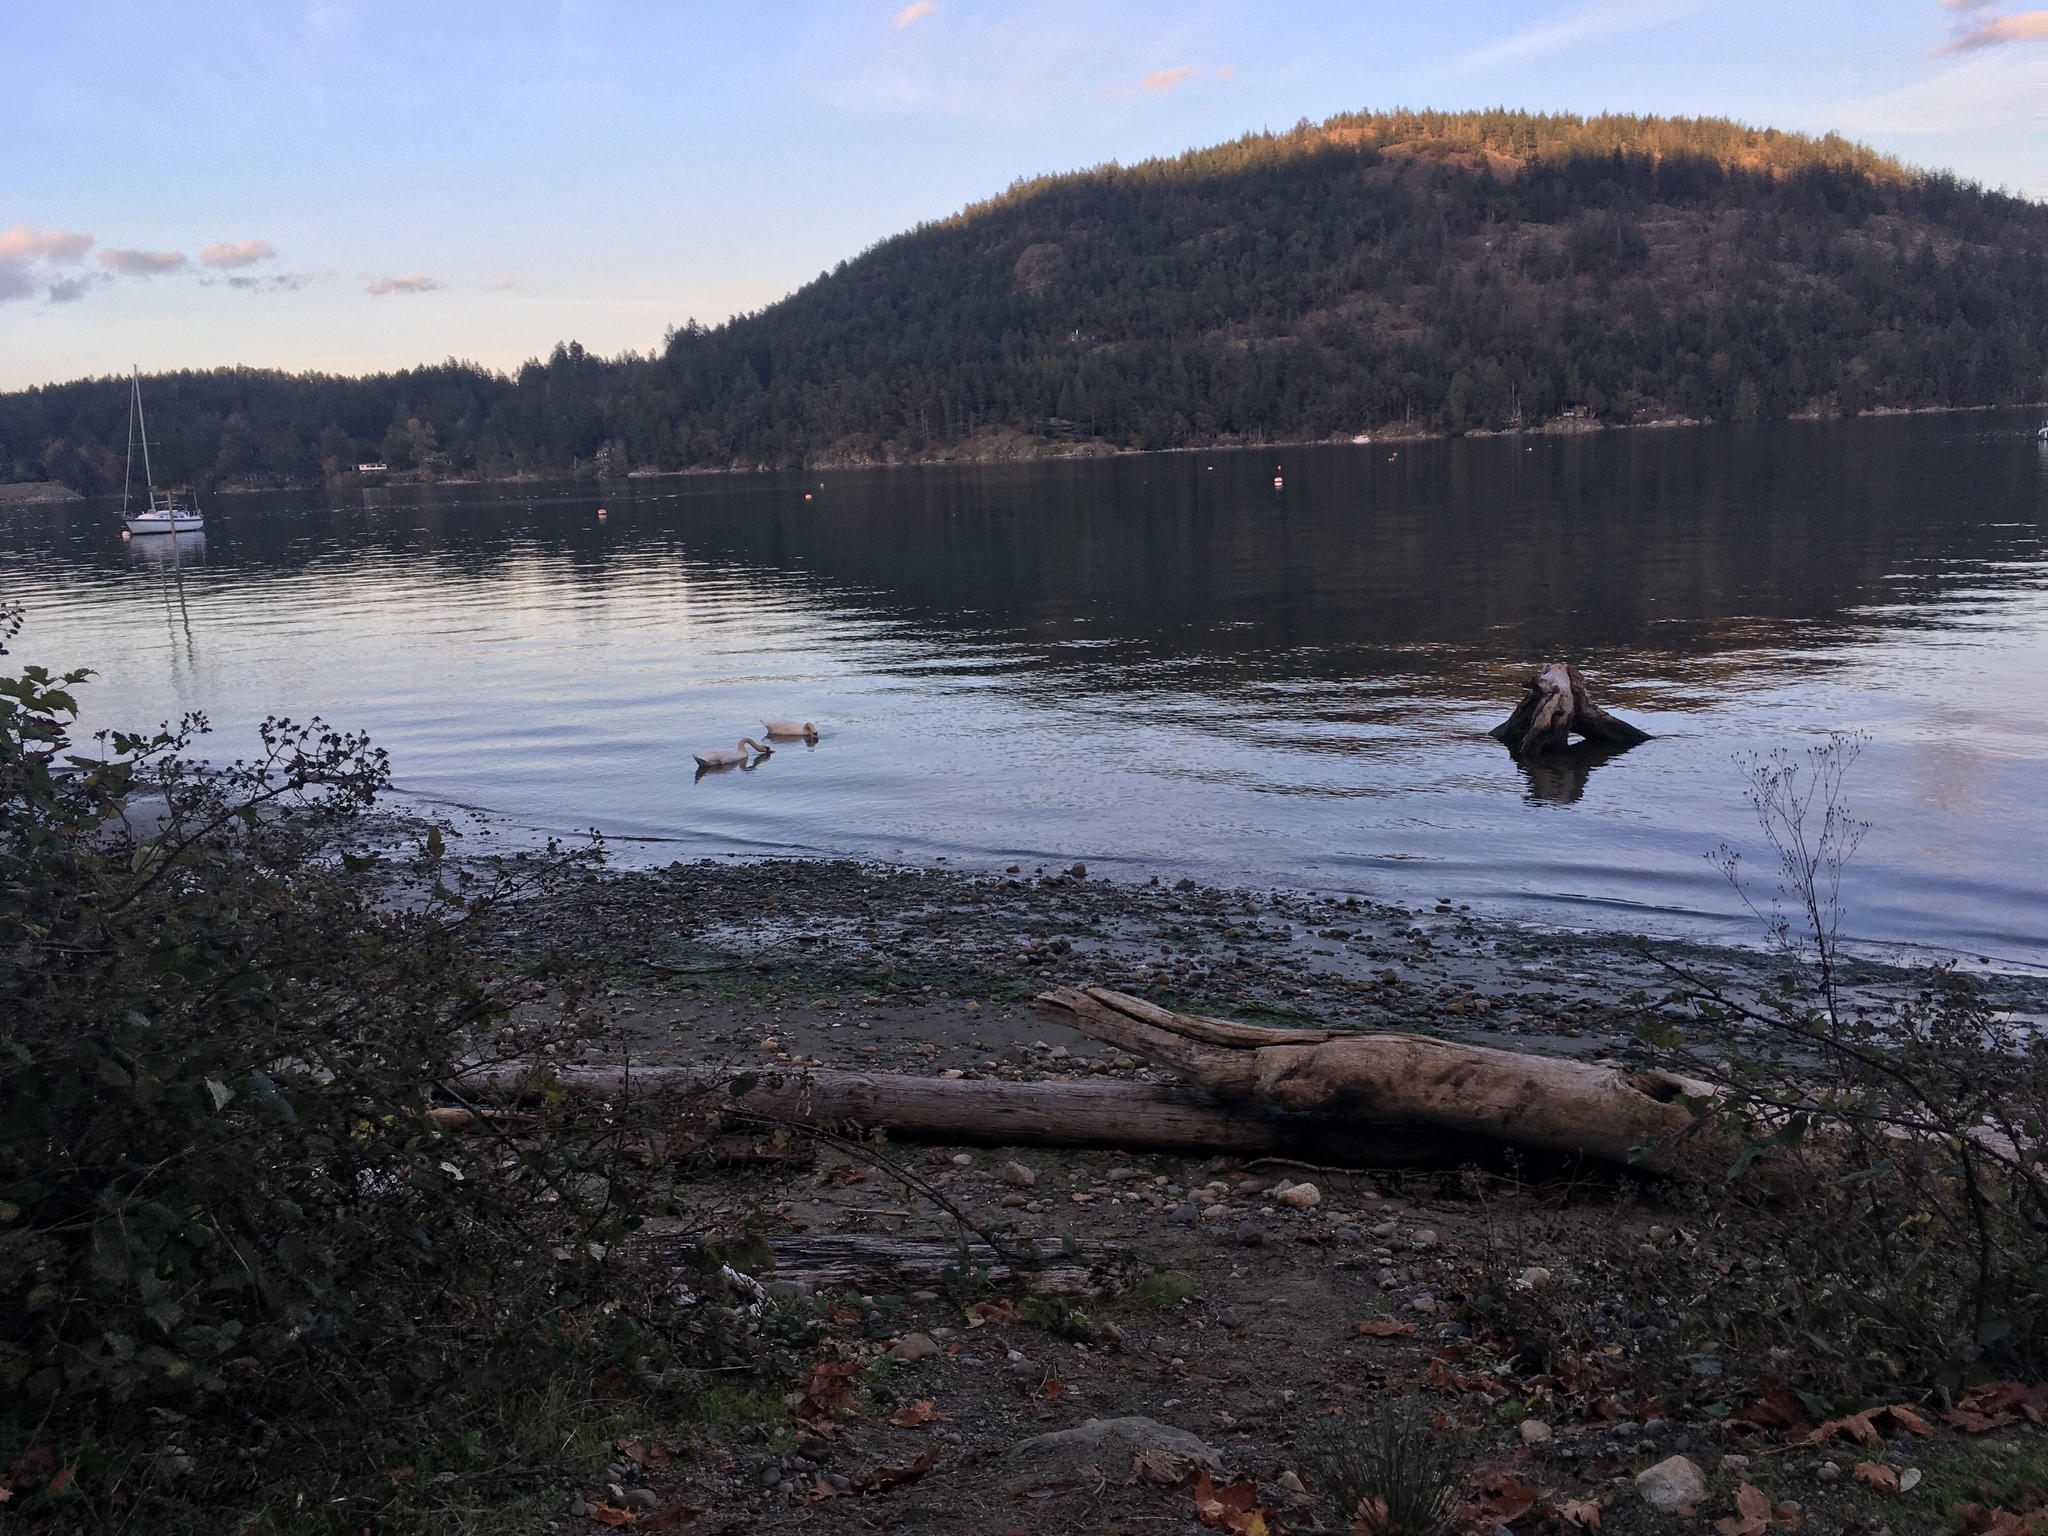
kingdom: Animalia
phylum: Chordata
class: Aves
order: Anseriformes
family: Anatidae
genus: Cygnus
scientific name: Cygnus olor
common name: Mute swan
